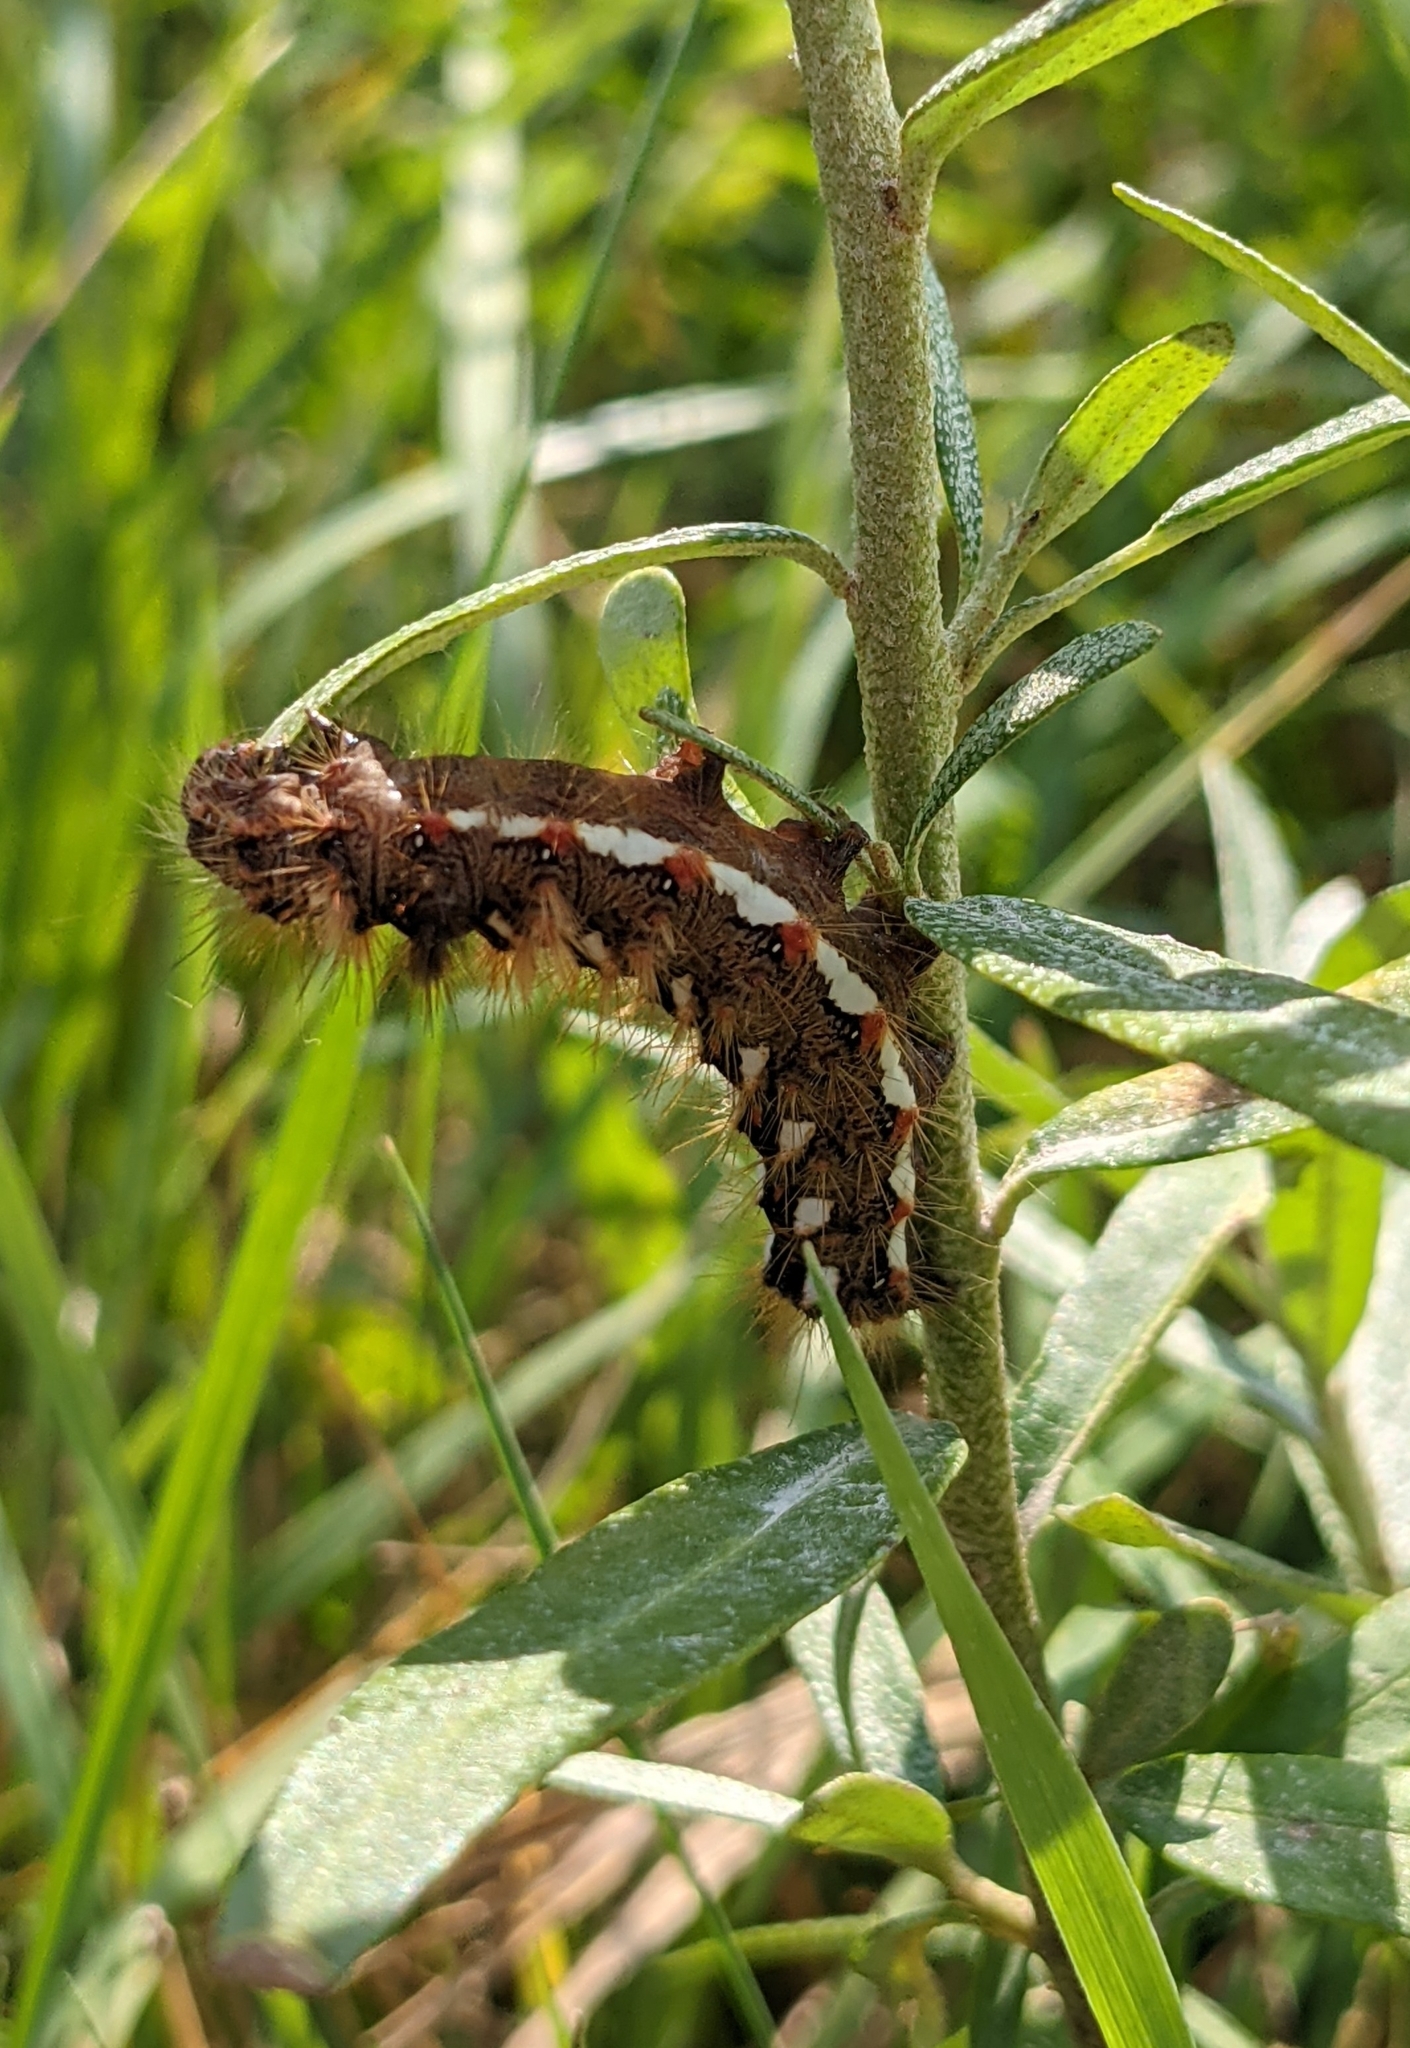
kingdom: Animalia
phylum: Arthropoda
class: Insecta
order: Lepidoptera
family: Noctuidae
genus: Acronicta
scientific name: Acronicta rumicis
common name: Knot grass
